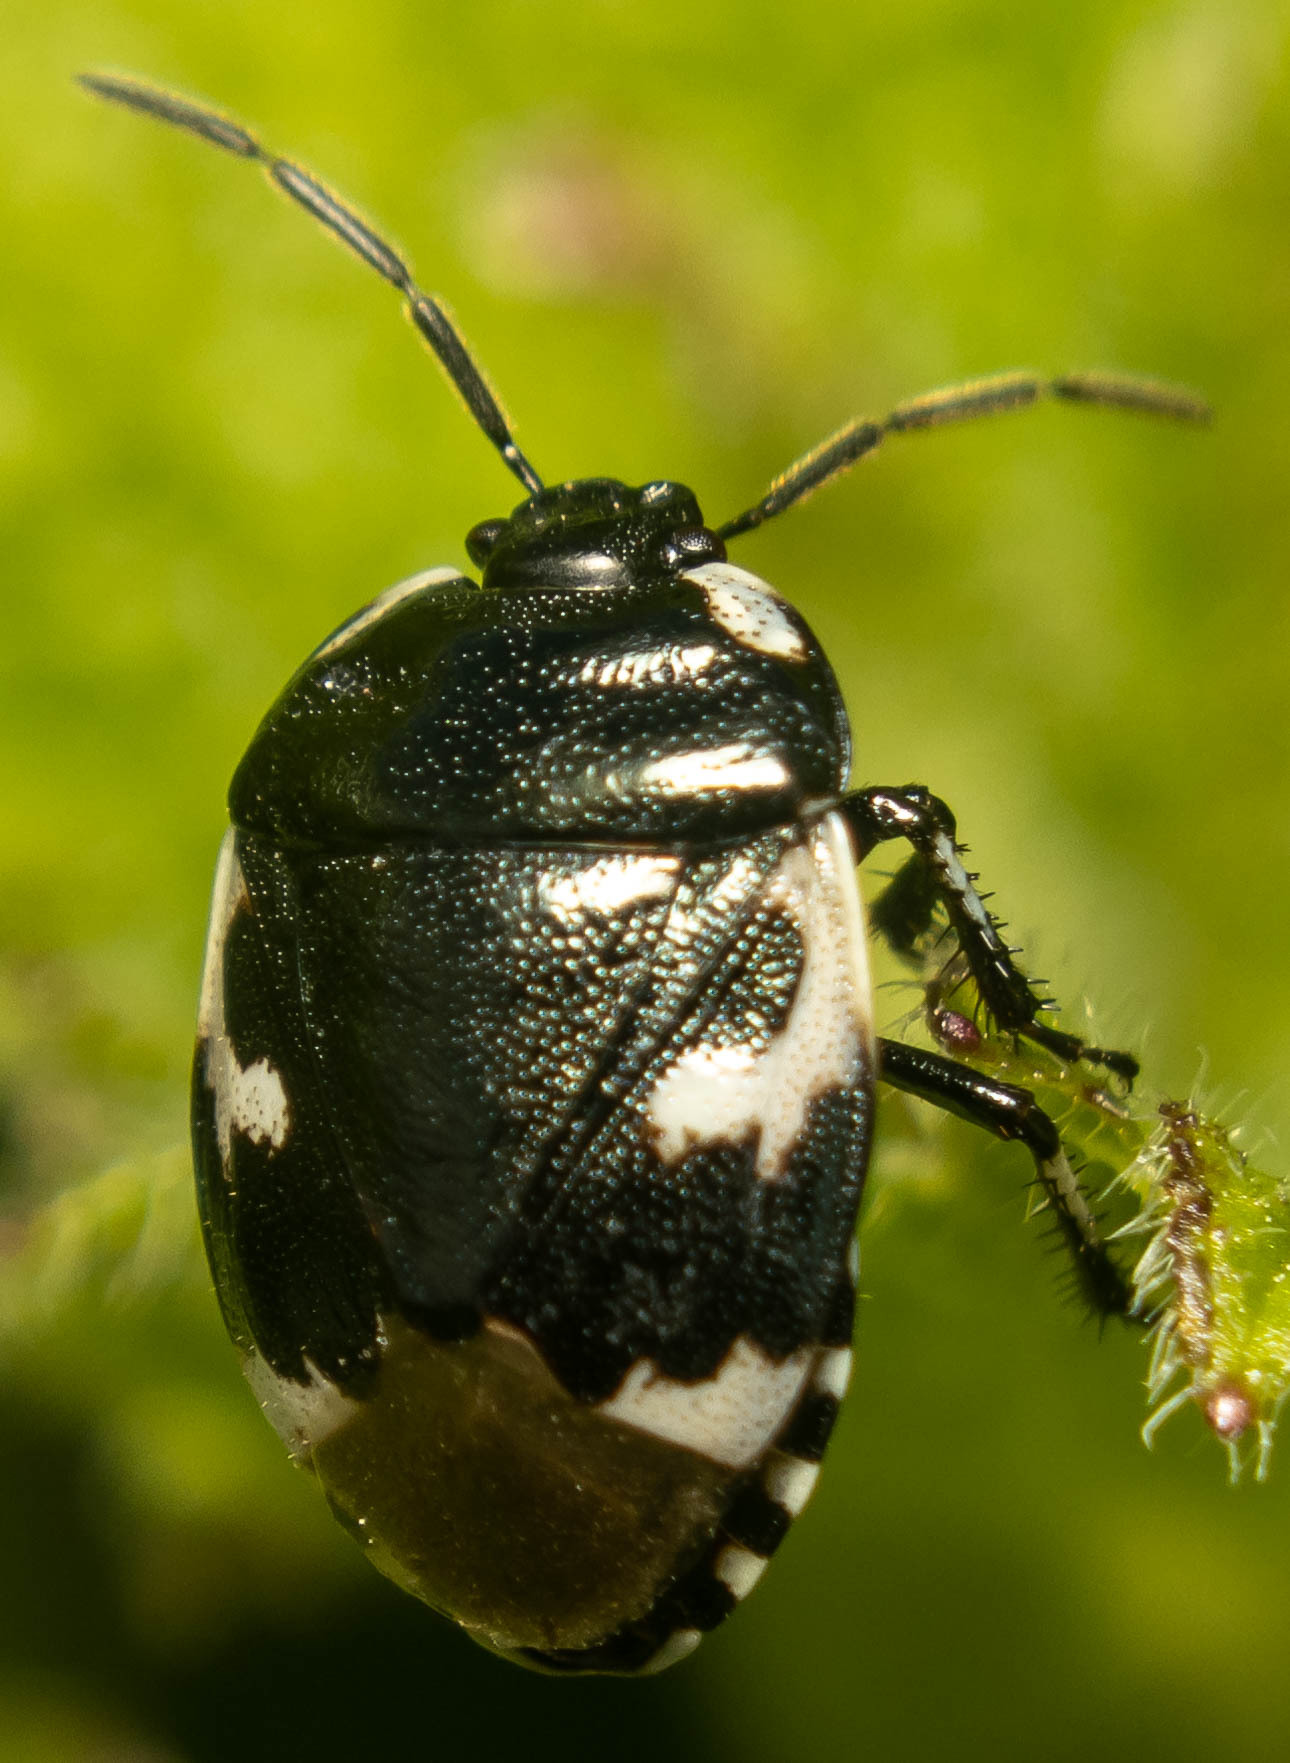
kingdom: Animalia
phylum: Arthropoda
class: Insecta
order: Hemiptera
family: Cydnidae
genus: Tritomegas
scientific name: Tritomegas bicolor
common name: Pied shieldbug
